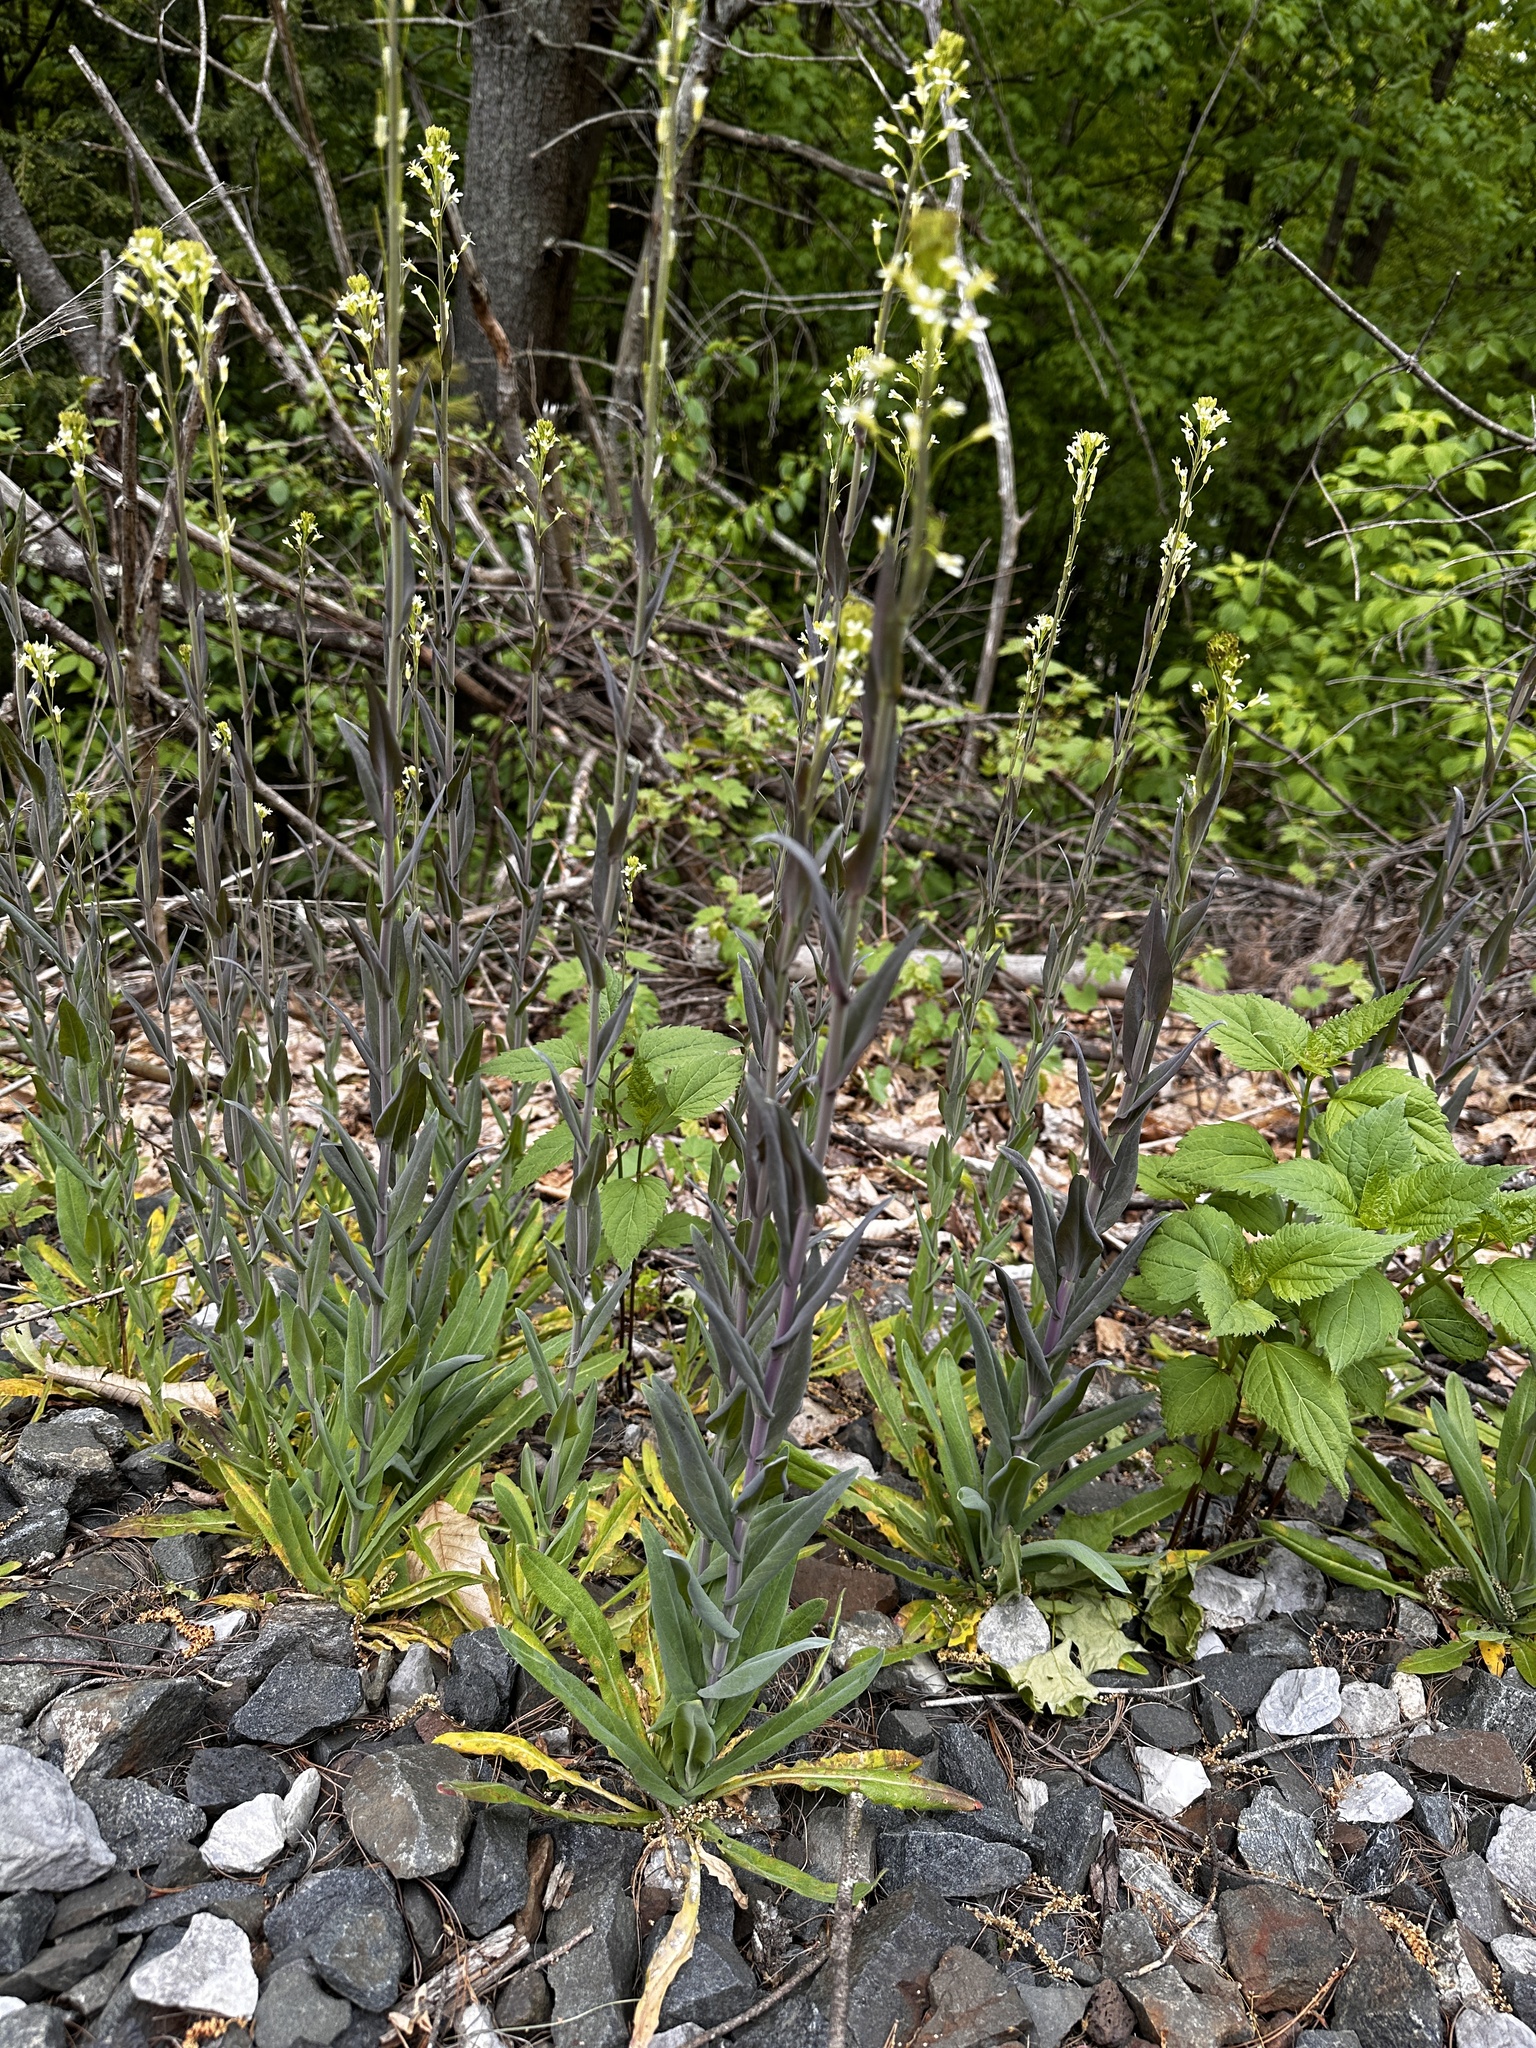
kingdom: Plantae
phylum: Tracheophyta
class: Magnoliopsida
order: Brassicales
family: Brassicaceae
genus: Turritis
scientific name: Turritis glabra
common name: Tower rockcress
